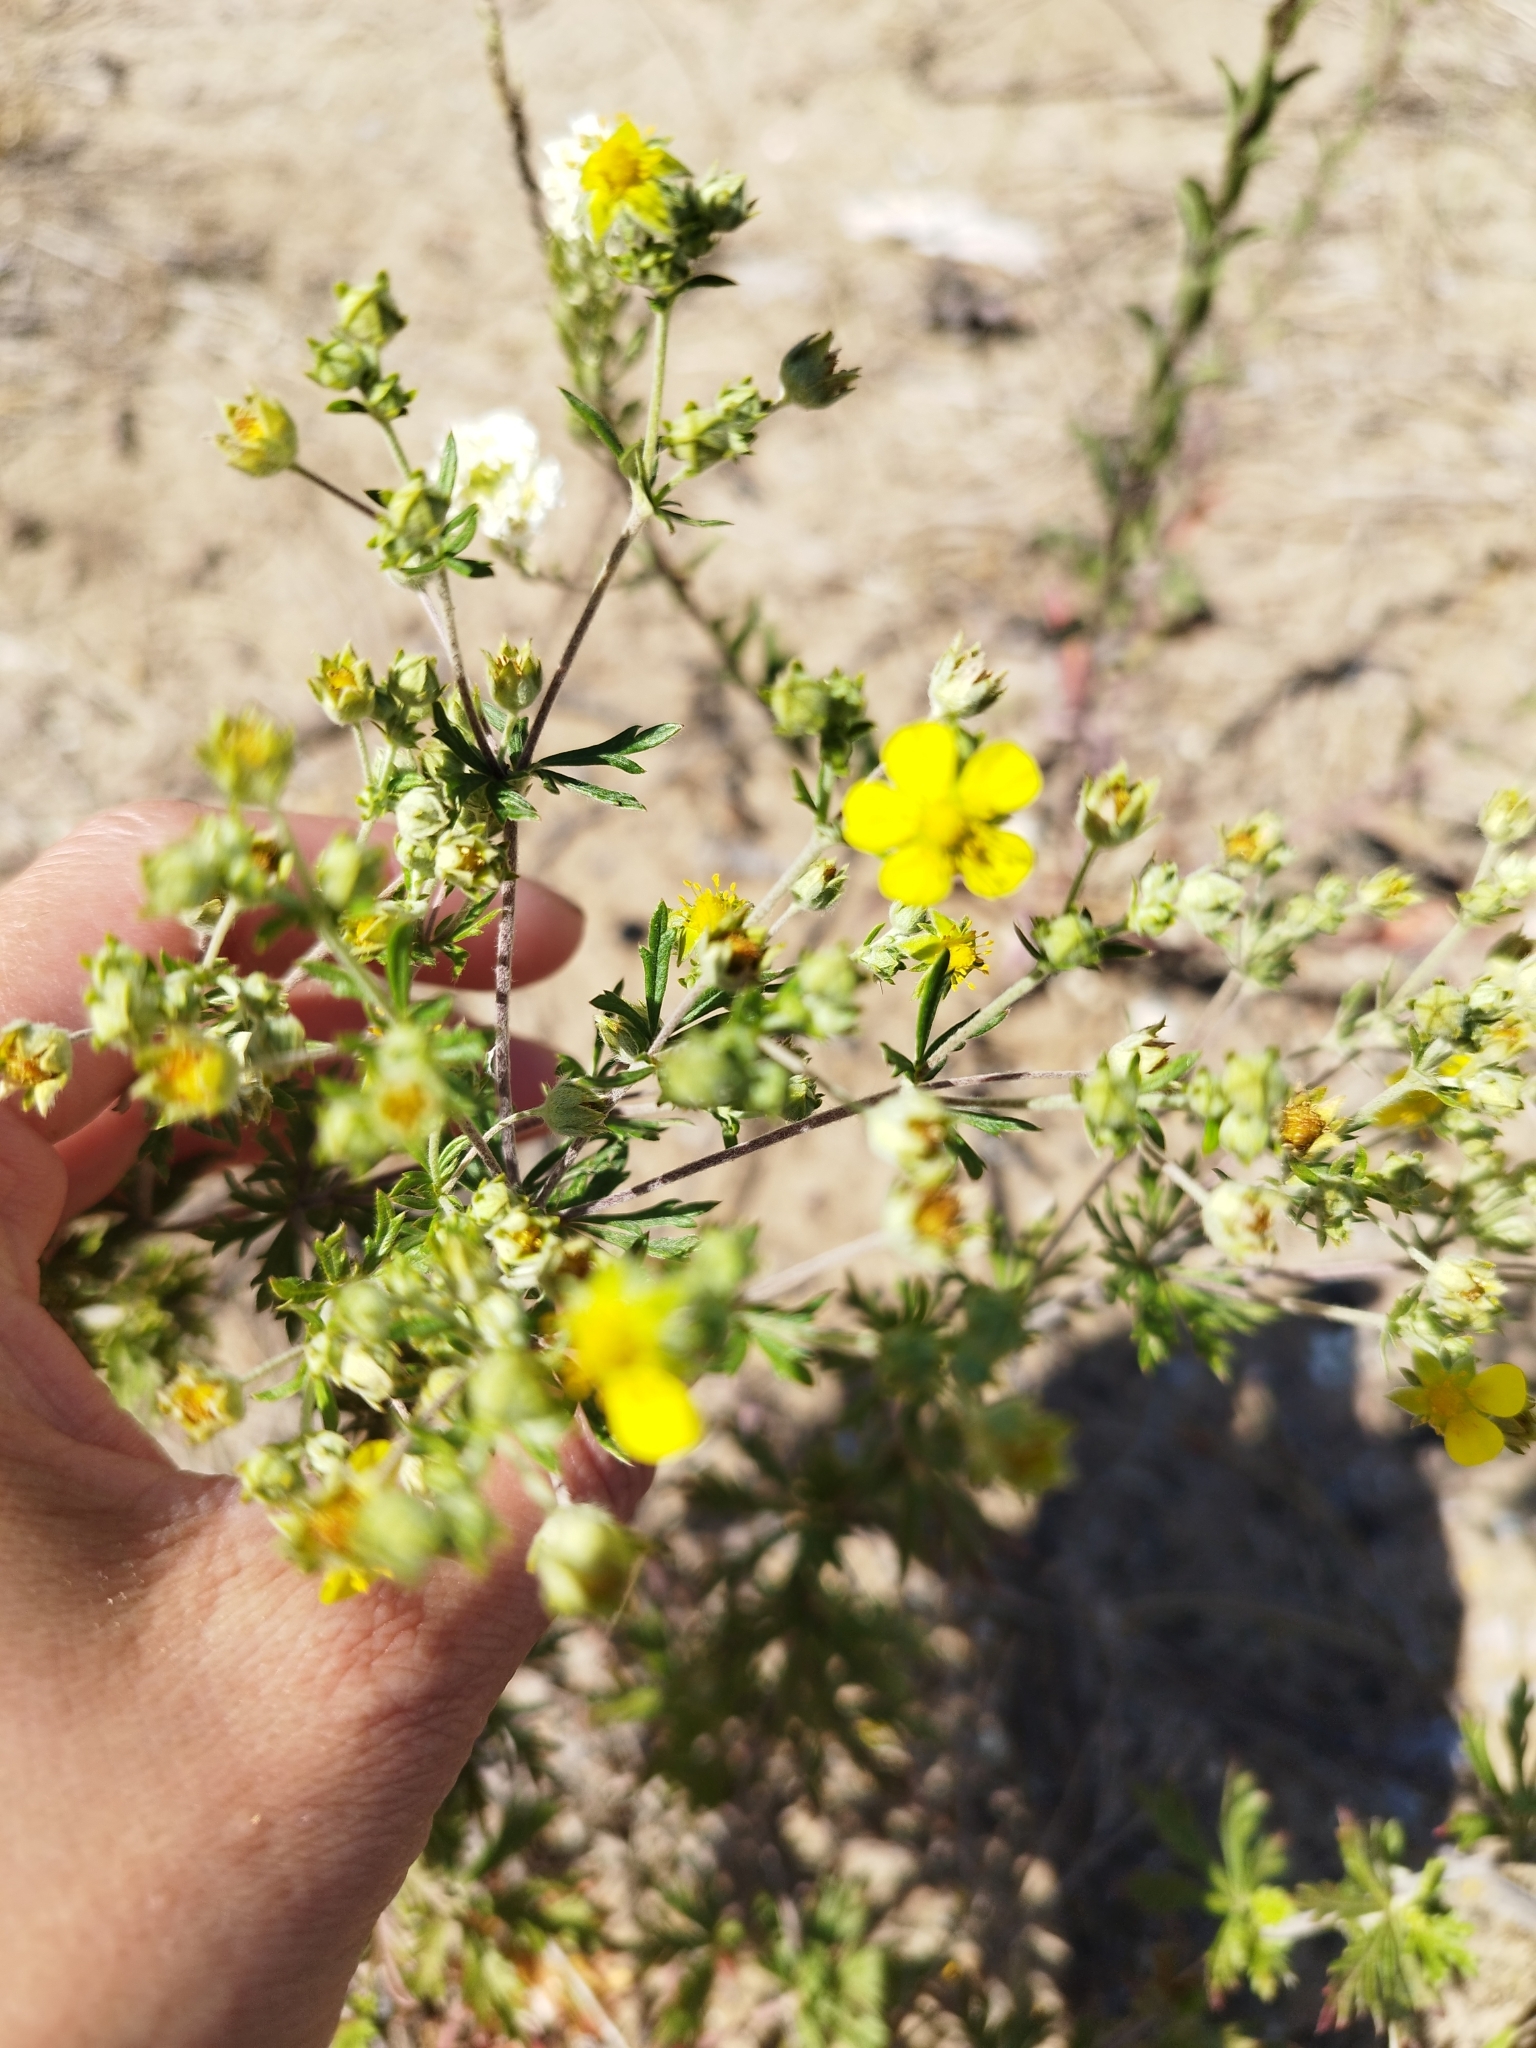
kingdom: Plantae
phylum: Tracheophyta
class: Magnoliopsida
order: Rosales
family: Rosaceae
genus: Potentilla
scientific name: Potentilla argentea
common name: Hoary cinquefoil
